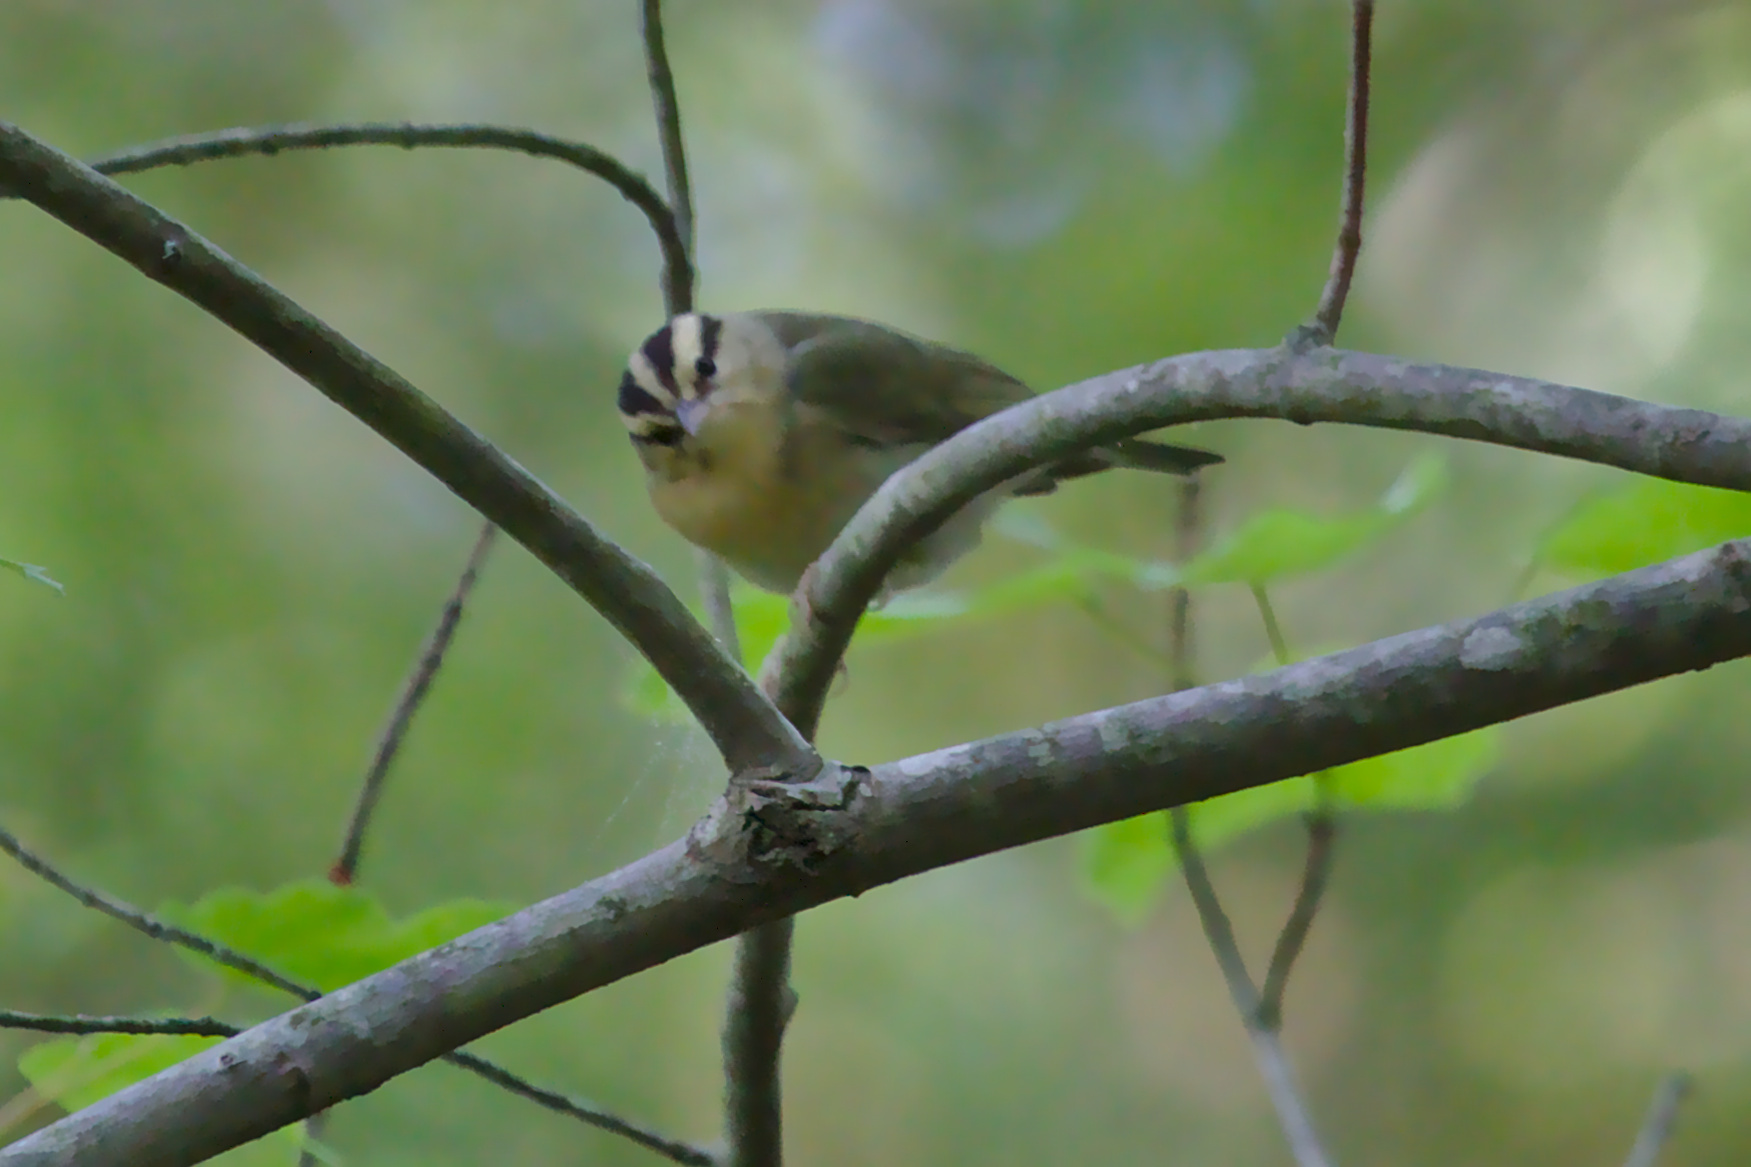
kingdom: Animalia
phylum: Chordata
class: Aves
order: Passeriformes
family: Parulidae
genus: Helmitheros
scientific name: Helmitheros vermivorum
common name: Worm-eating warbler
